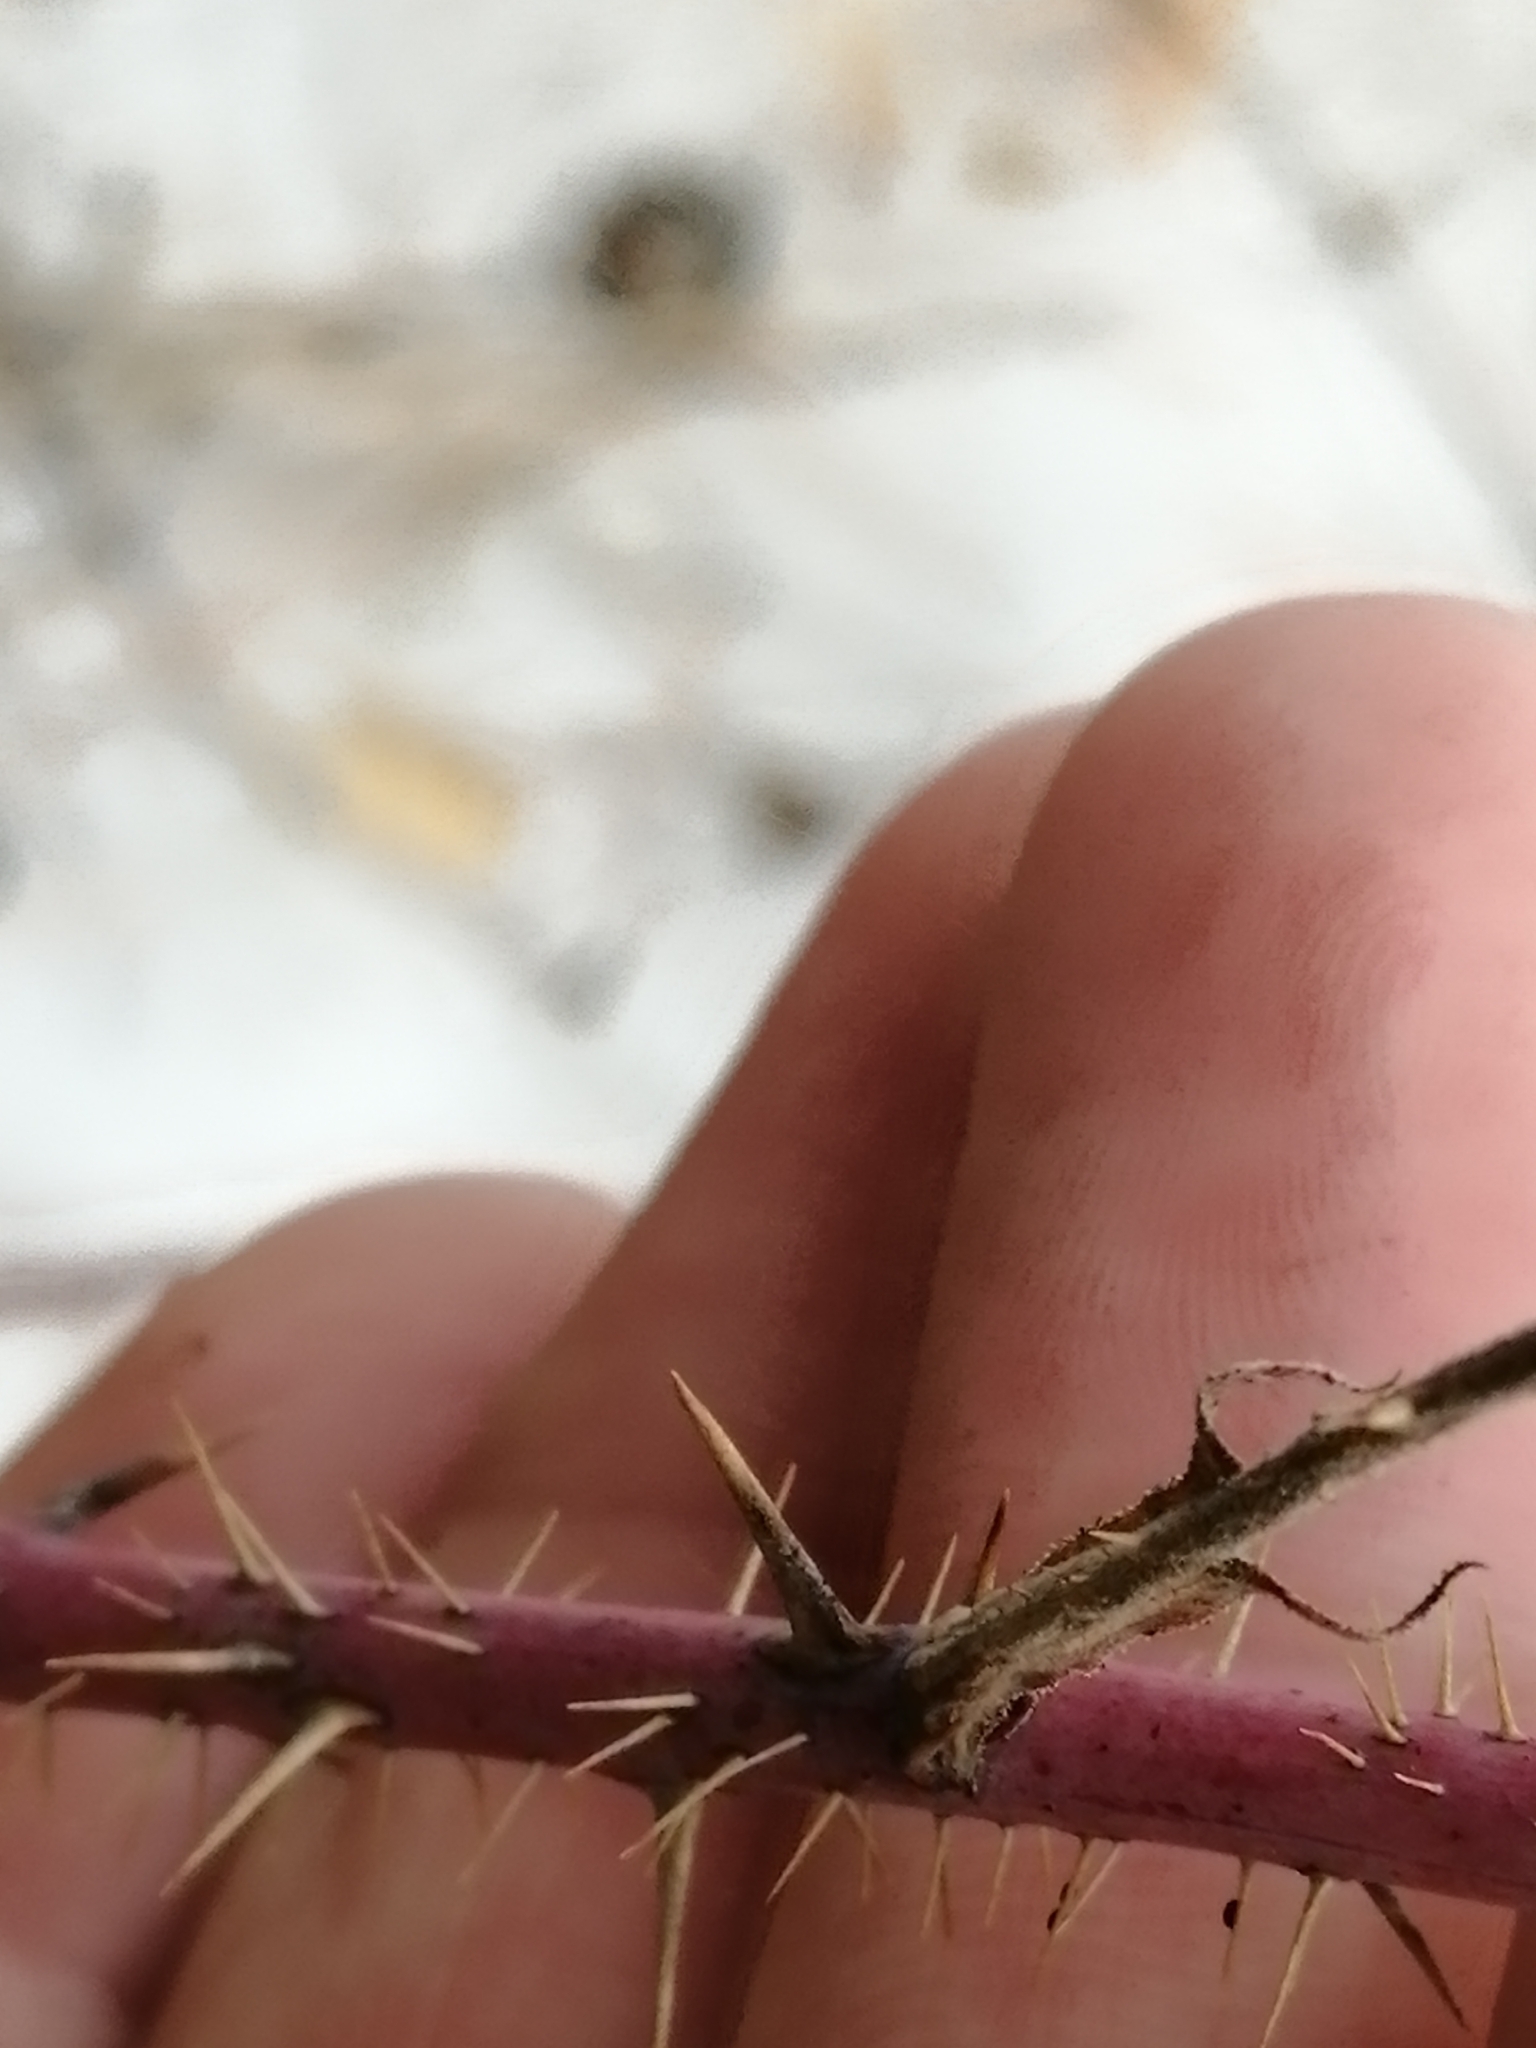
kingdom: Plantae
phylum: Tracheophyta
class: Magnoliopsida
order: Rosales
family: Rosaceae
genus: Rosa
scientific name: Rosa acicularis
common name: Prickly rose
